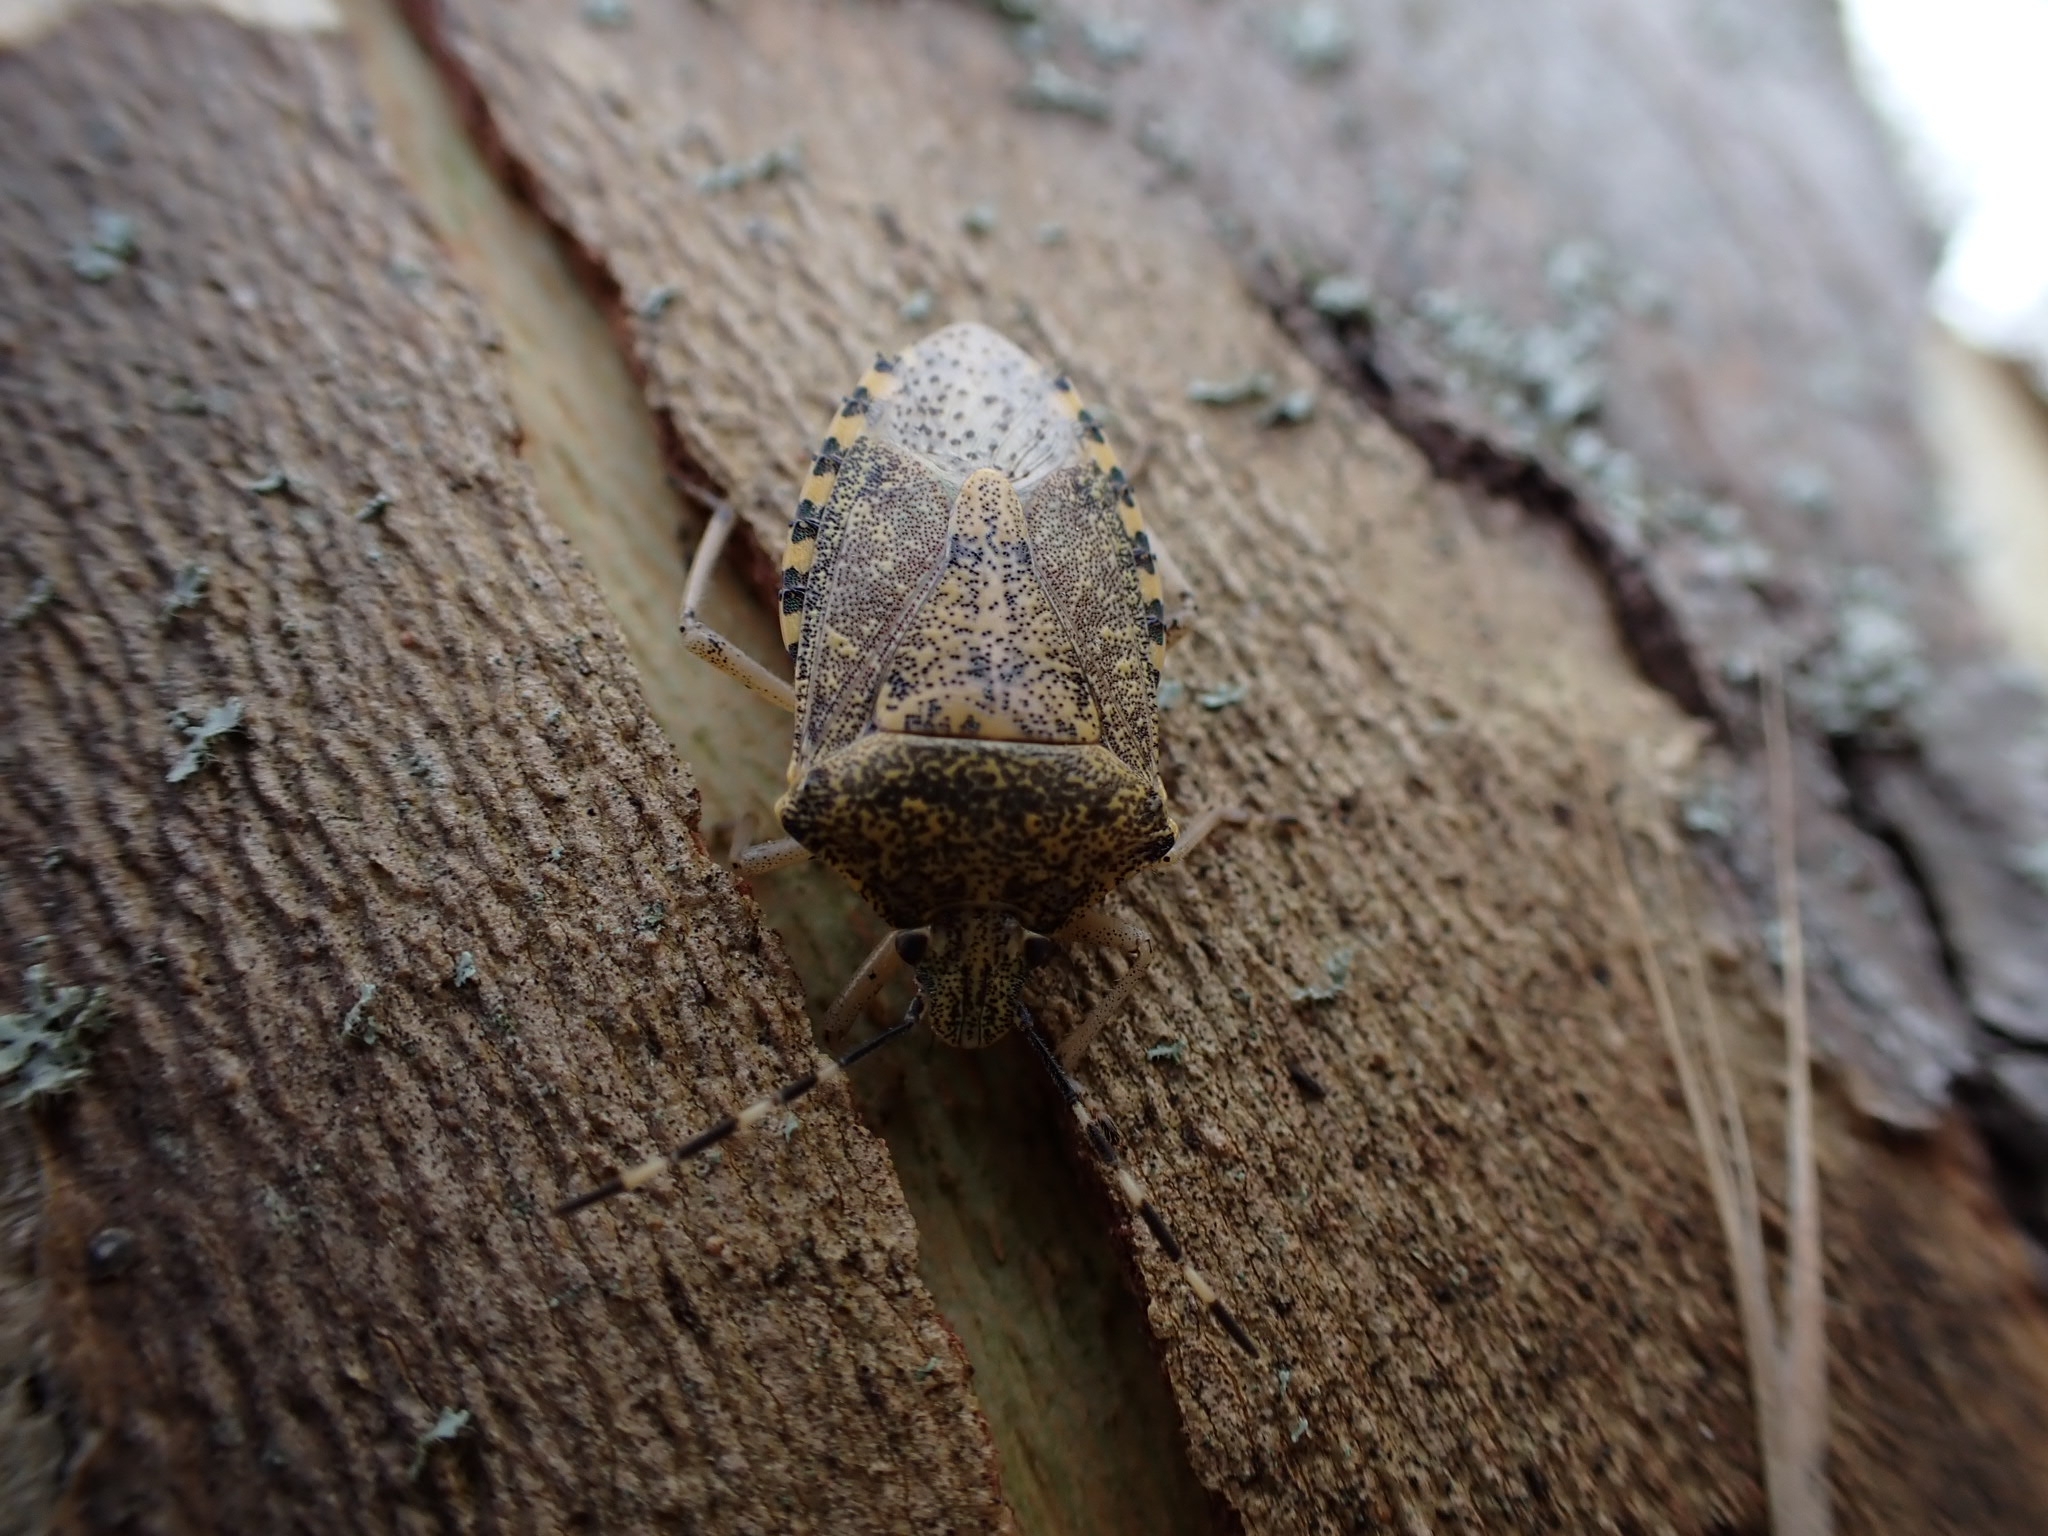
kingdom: Animalia
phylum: Arthropoda
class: Insecta
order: Hemiptera
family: Pentatomidae
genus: Rhaphigaster
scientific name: Rhaphigaster nebulosa
